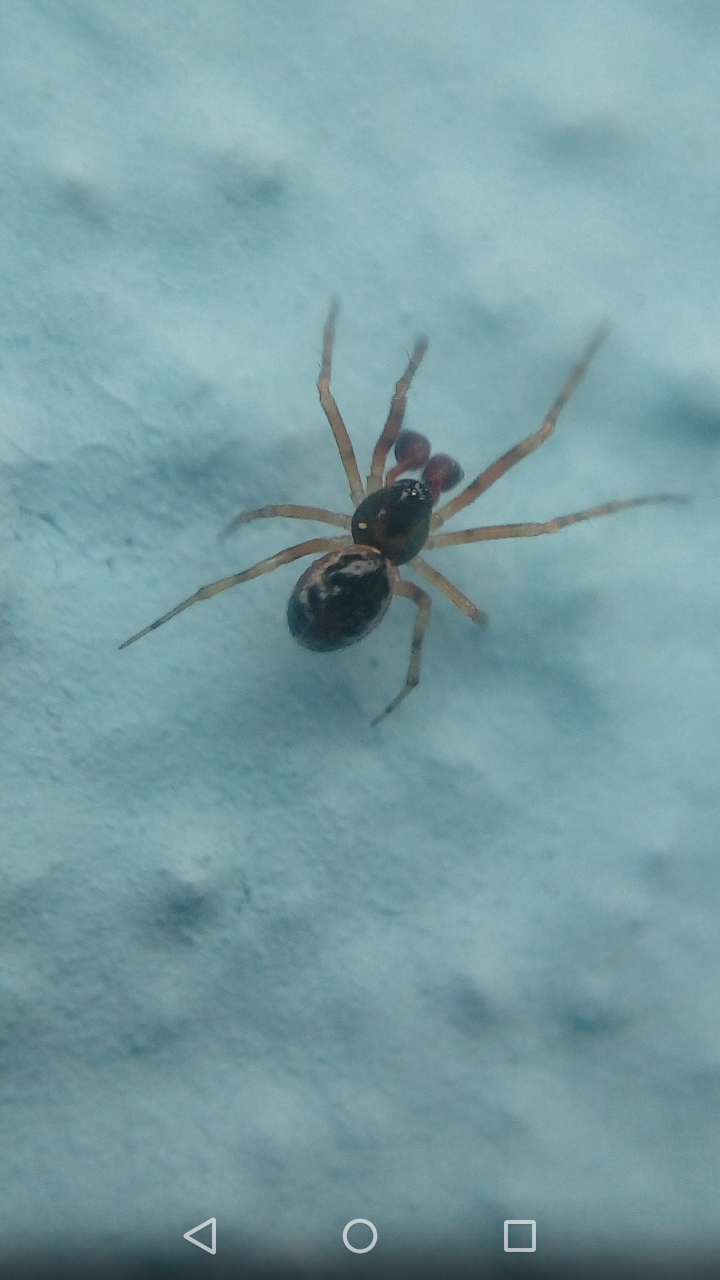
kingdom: Animalia
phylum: Arthropoda
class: Arachnida
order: Araneae
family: Theridiidae
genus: Sardinidion
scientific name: Sardinidion blackwalli
